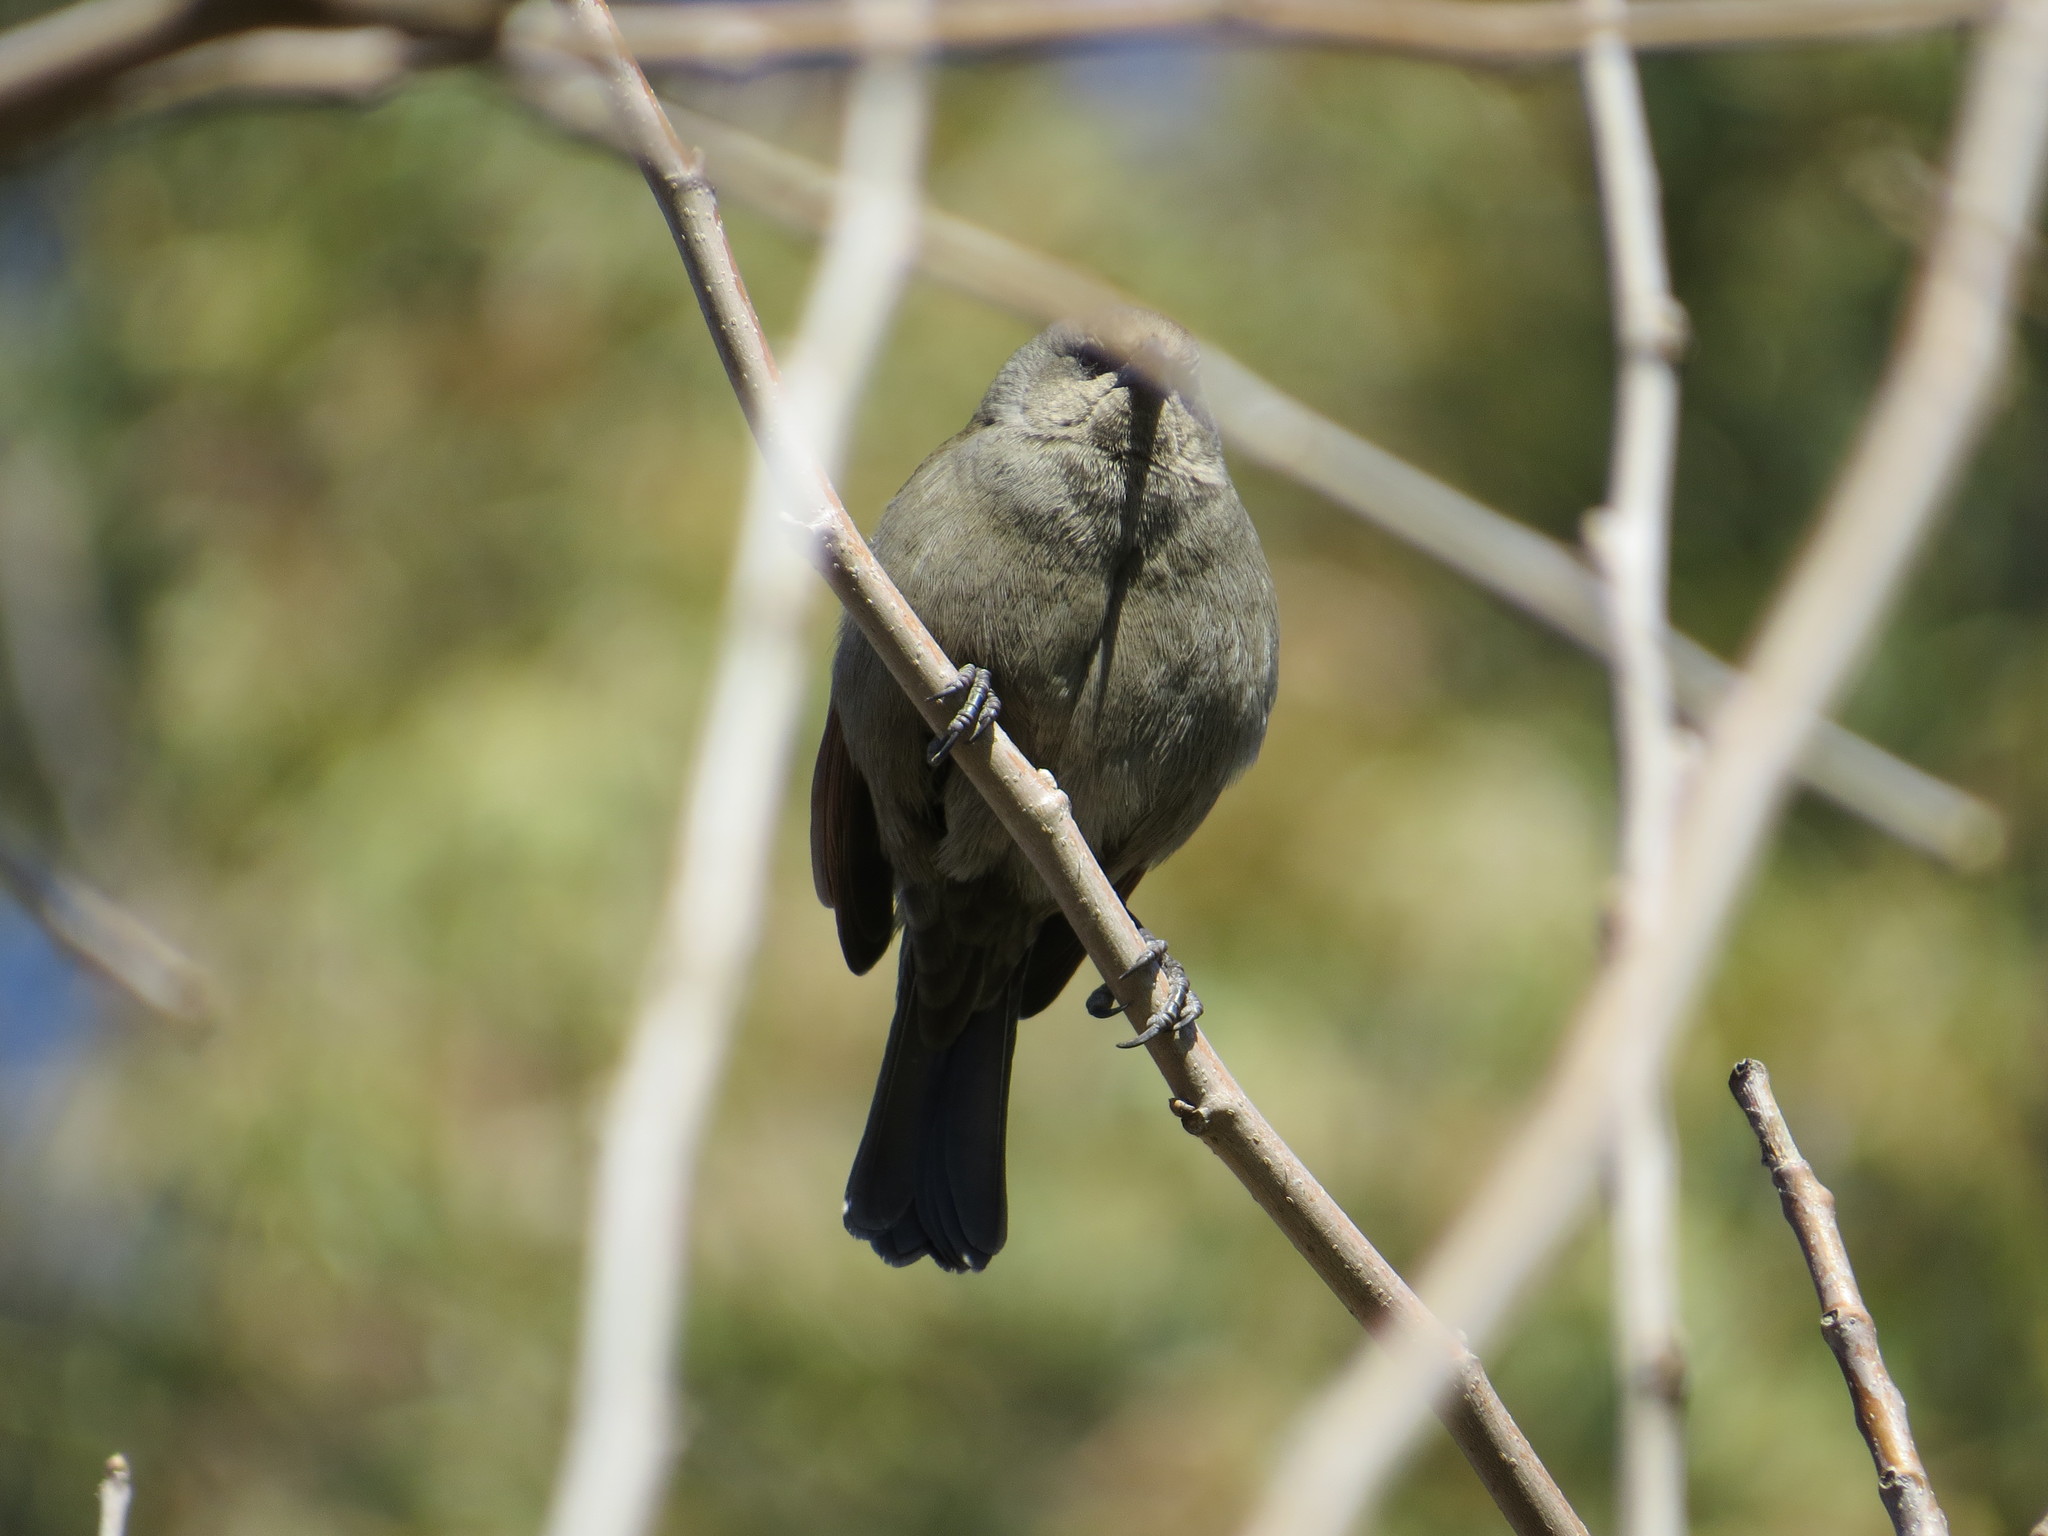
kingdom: Animalia
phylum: Chordata
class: Aves
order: Passeriformes
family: Icteridae
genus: Agelaioides
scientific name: Agelaioides badius
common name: Baywing
